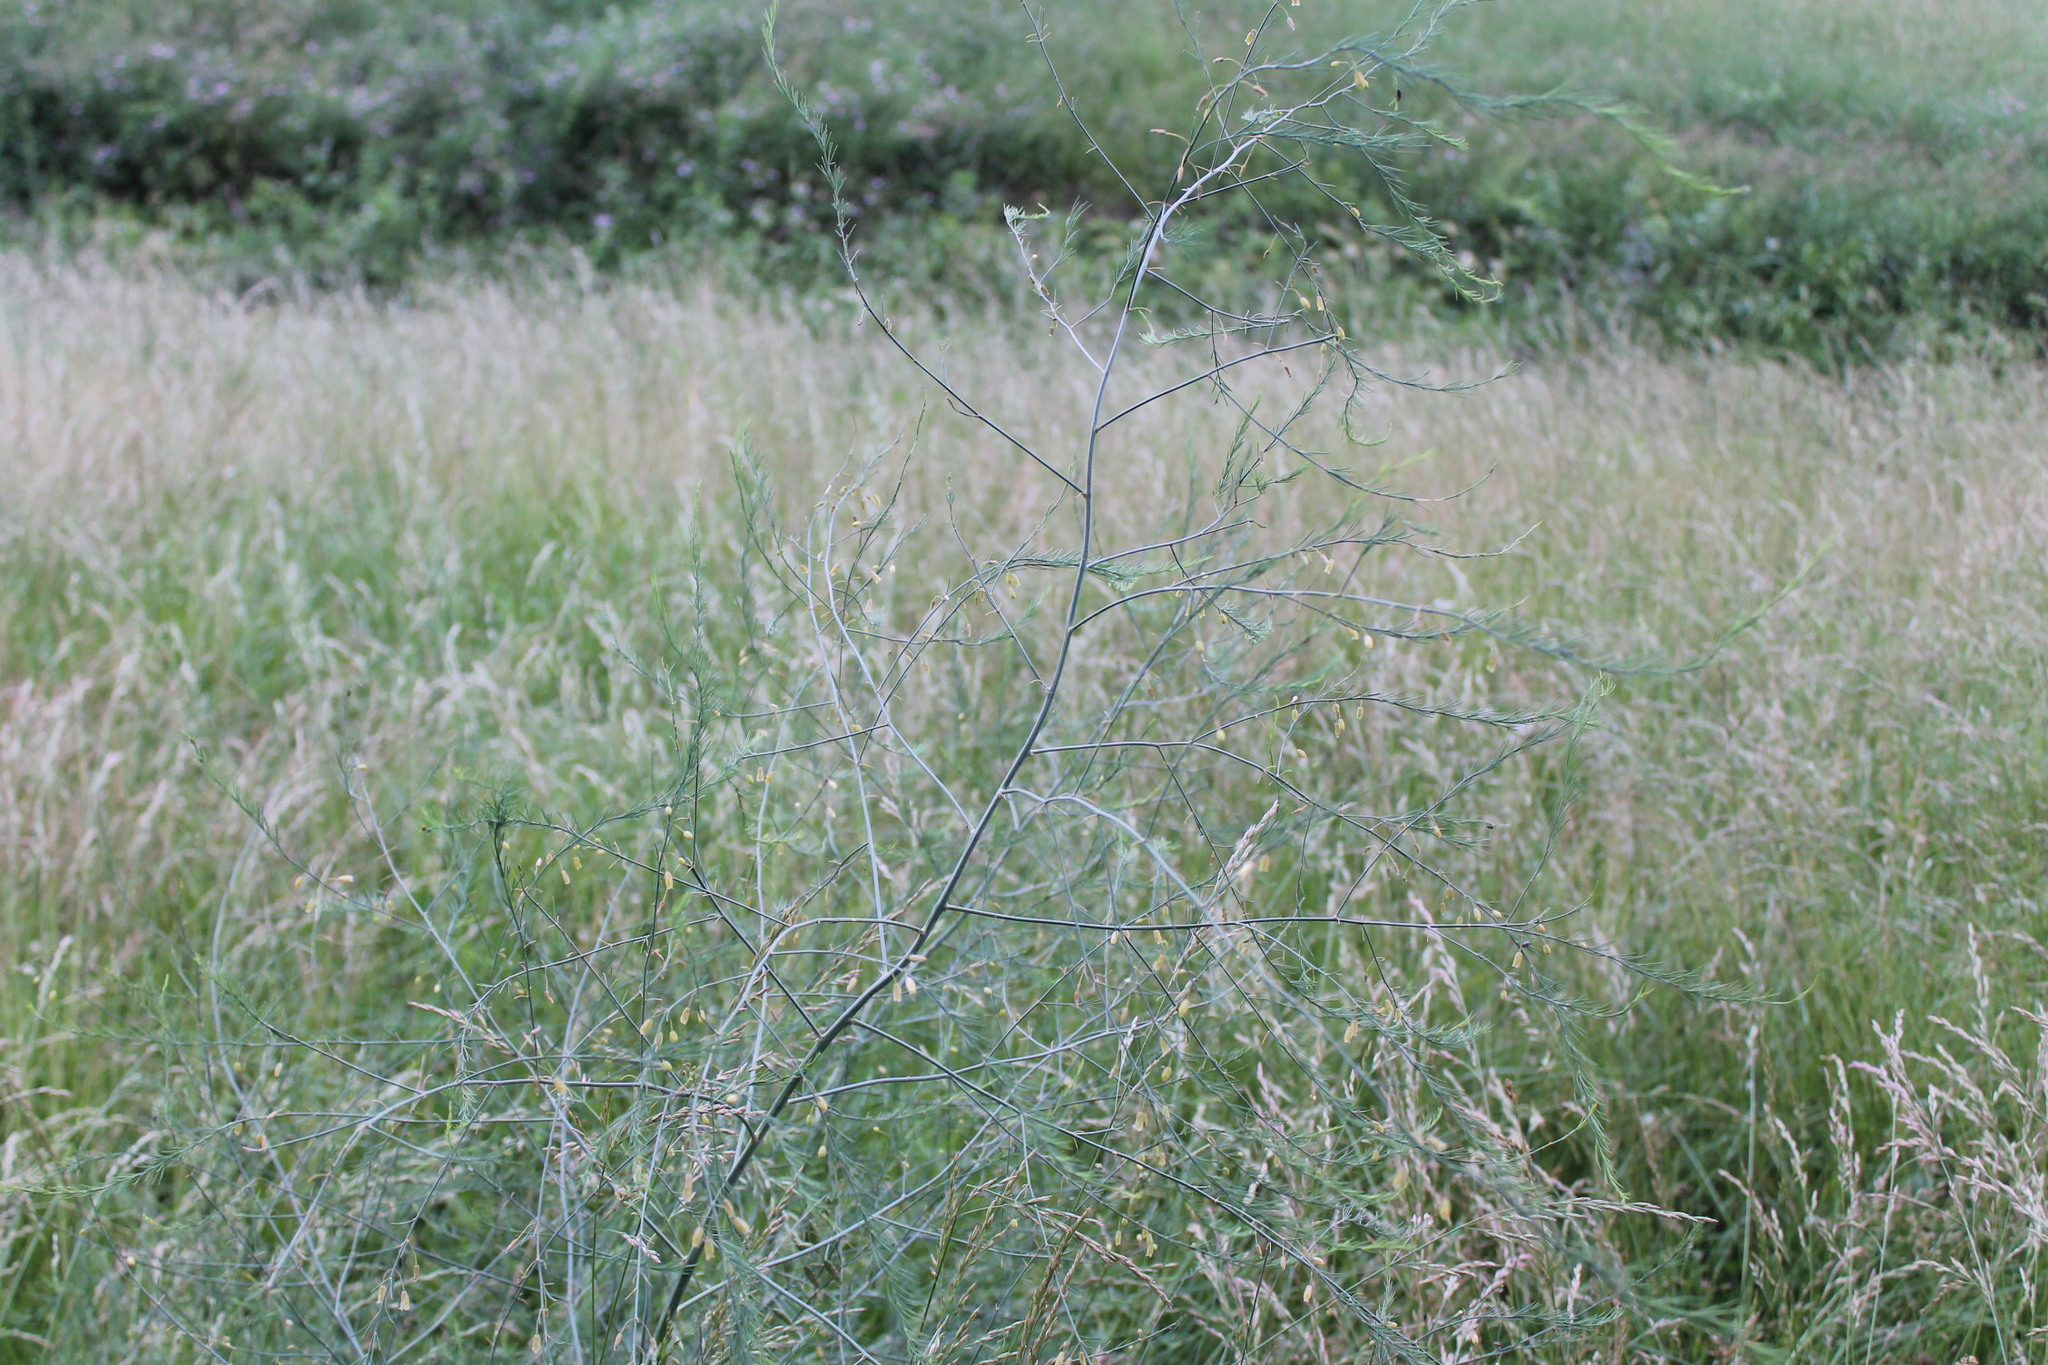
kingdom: Plantae
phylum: Tracheophyta
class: Liliopsida
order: Asparagales
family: Asparagaceae
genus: Asparagus
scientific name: Asparagus officinalis
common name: Garden asparagus
